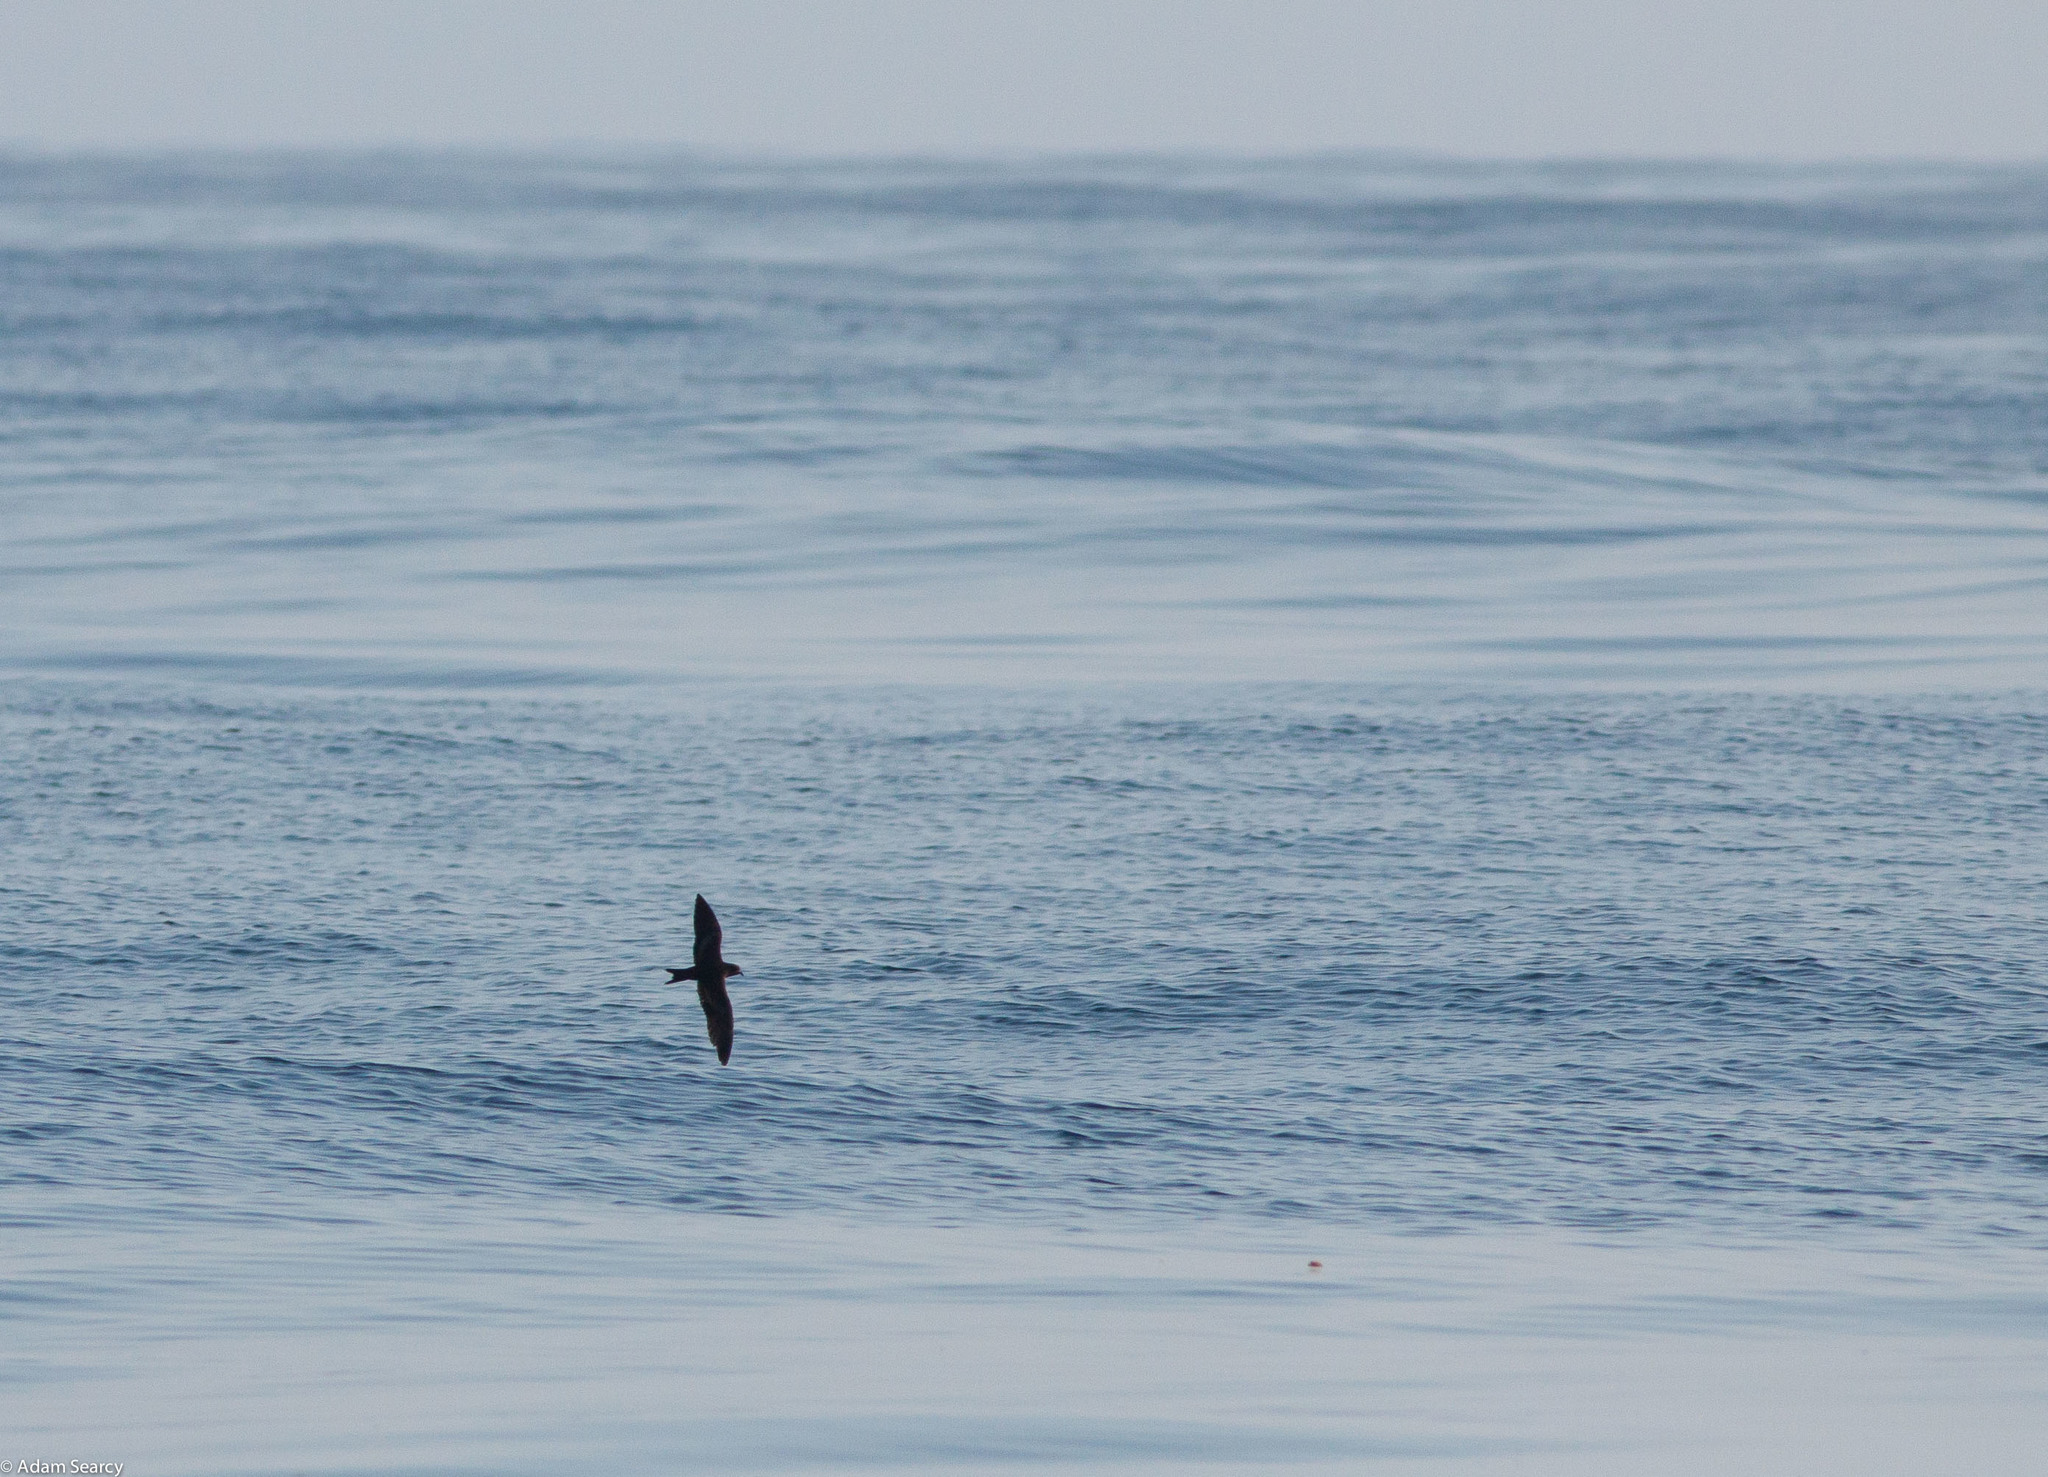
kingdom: Animalia
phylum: Chordata
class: Aves
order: Procellariiformes
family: Hydrobatidae
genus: Hydrobates
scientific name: Hydrobates melania
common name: Black storm petrel
